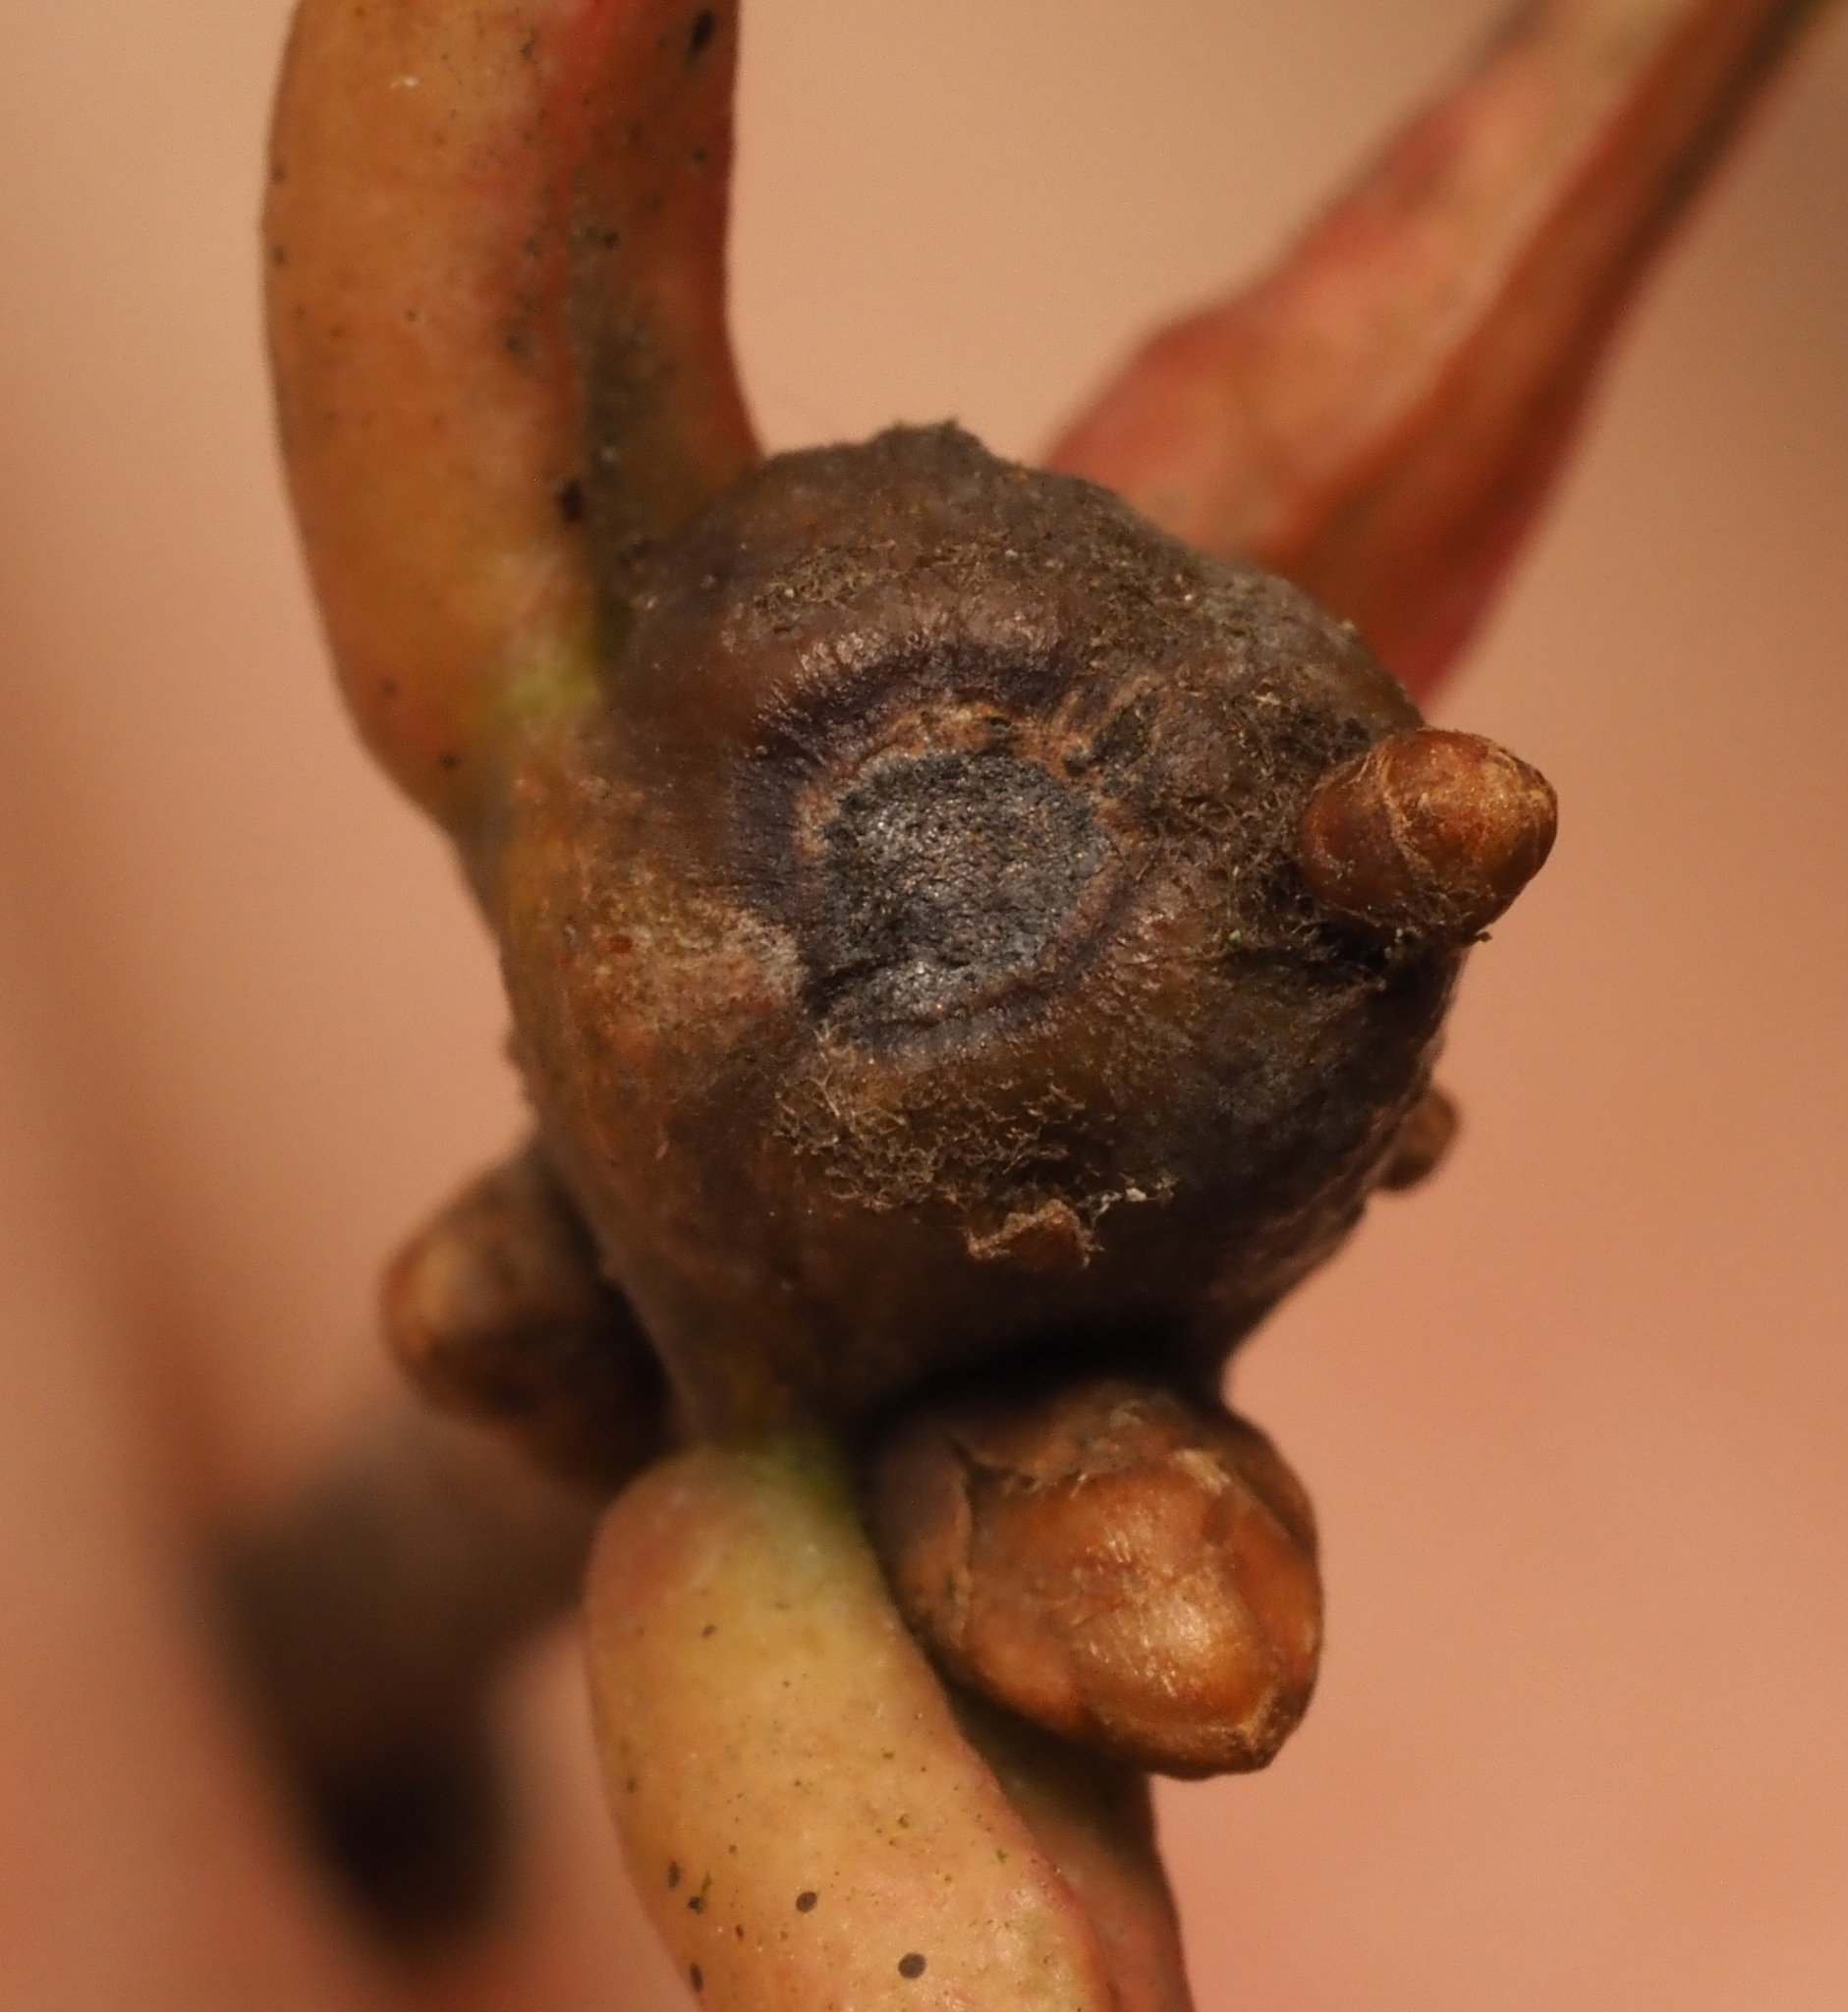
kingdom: Animalia
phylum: Arthropoda
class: Insecta
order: Hymenoptera
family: Cynipidae
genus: Callirhytis
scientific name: Callirhytis clavula
